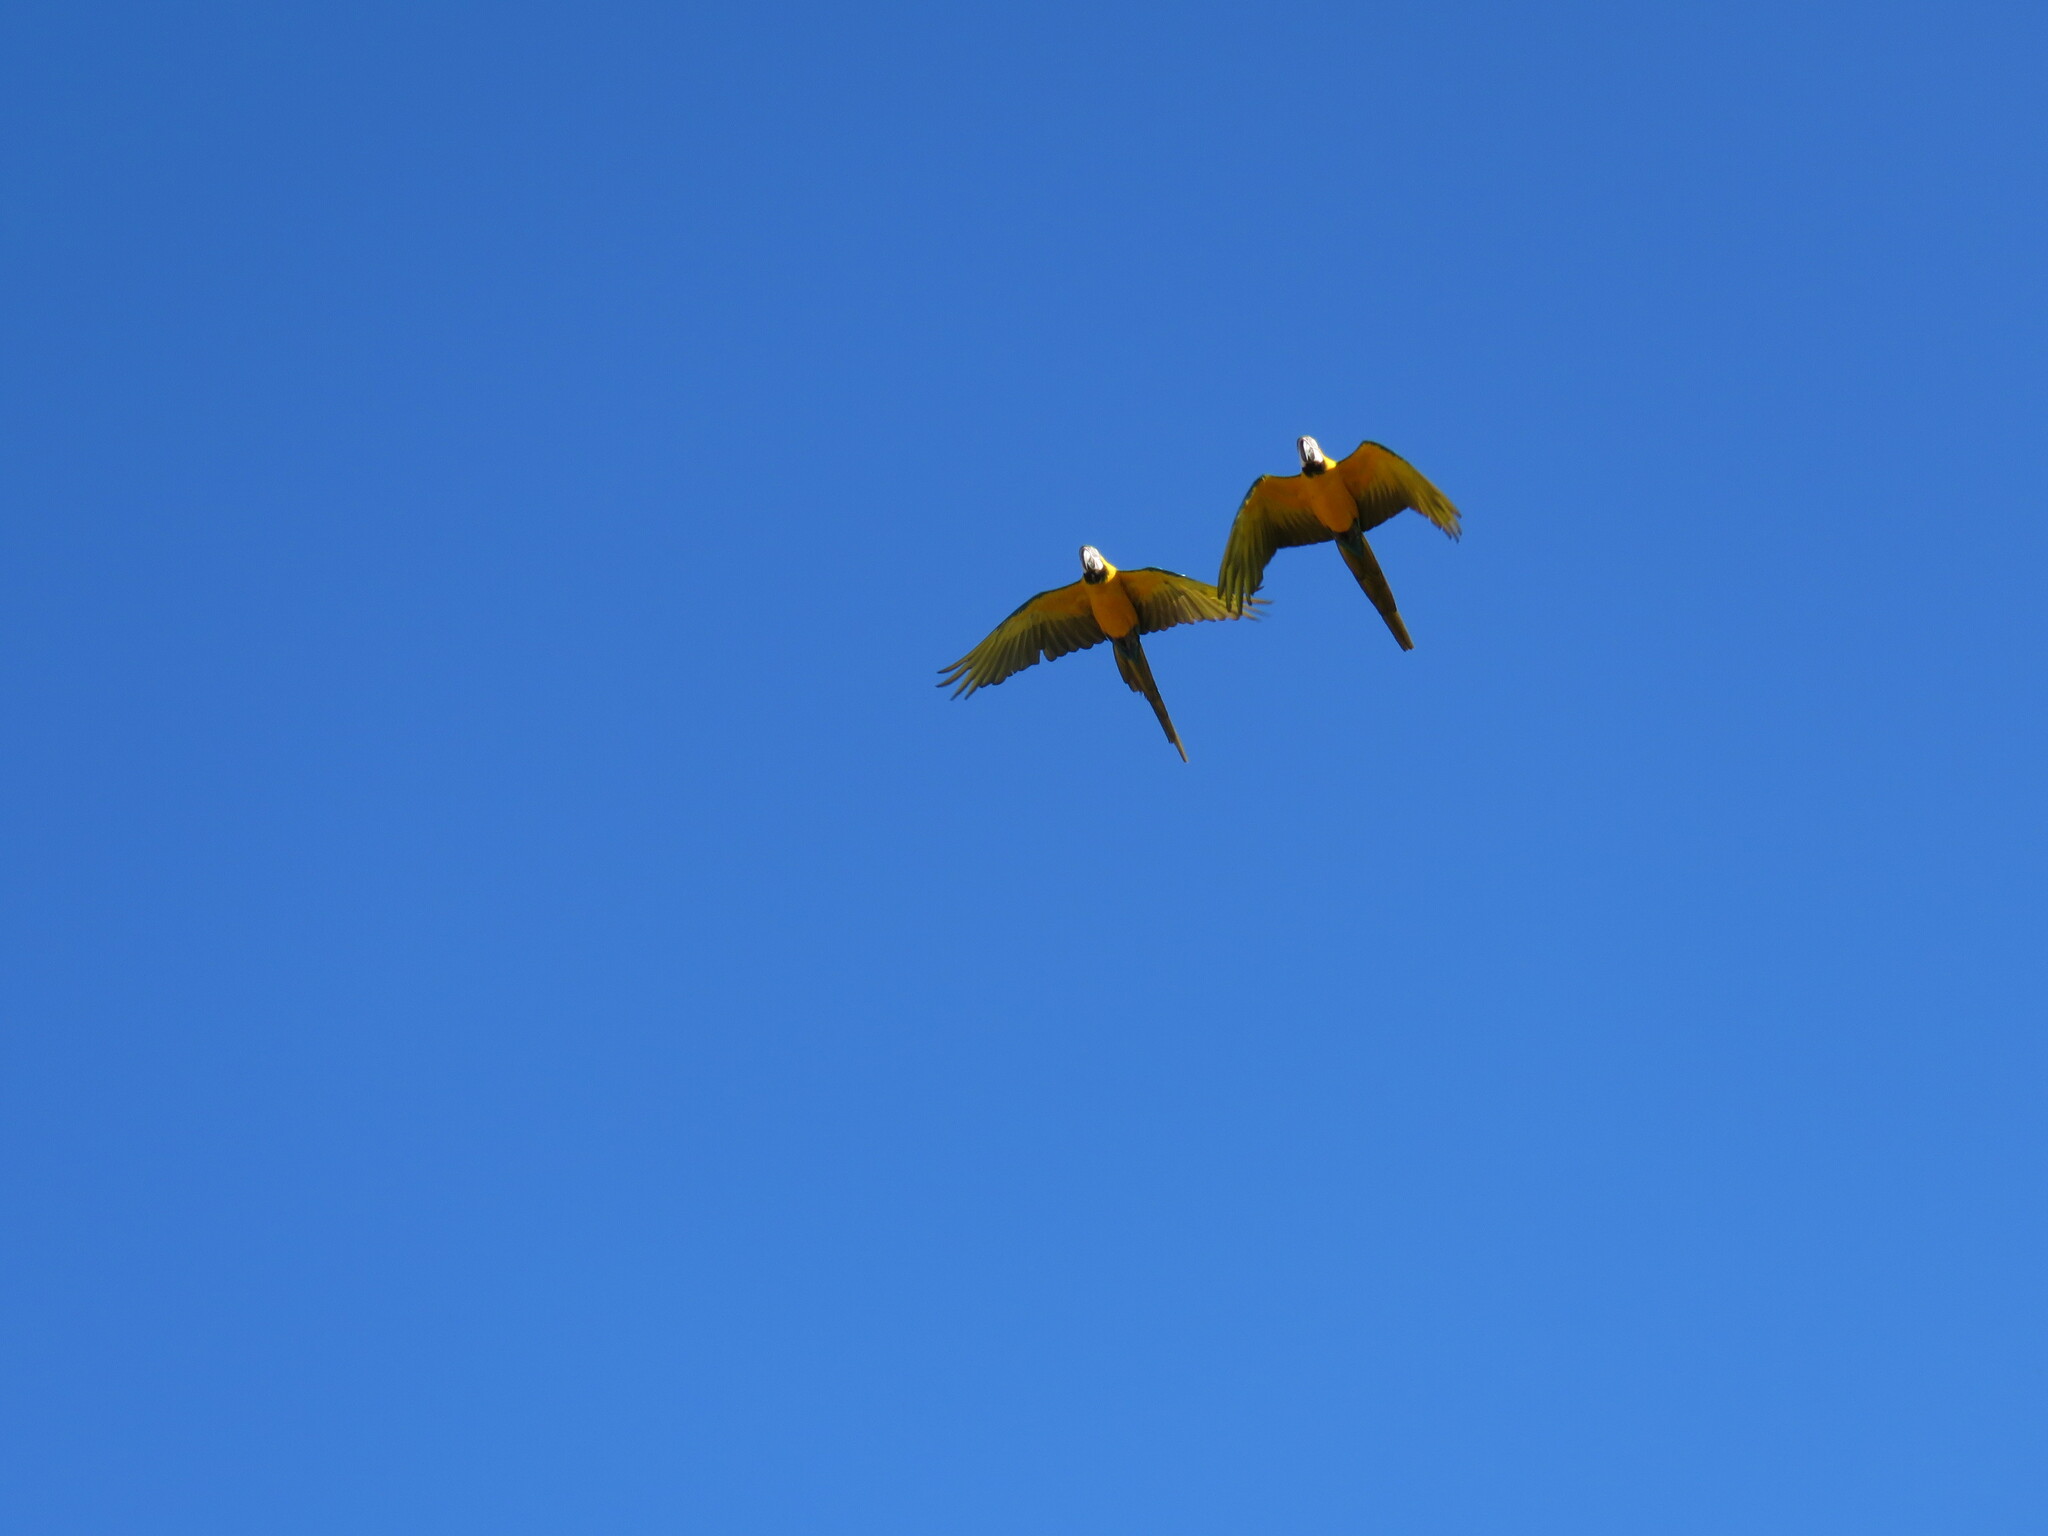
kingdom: Animalia
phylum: Chordata
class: Aves
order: Psittaciformes
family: Psittacidae
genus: Ara
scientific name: Ara ararauna
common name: Blue-and-yellow macaw
